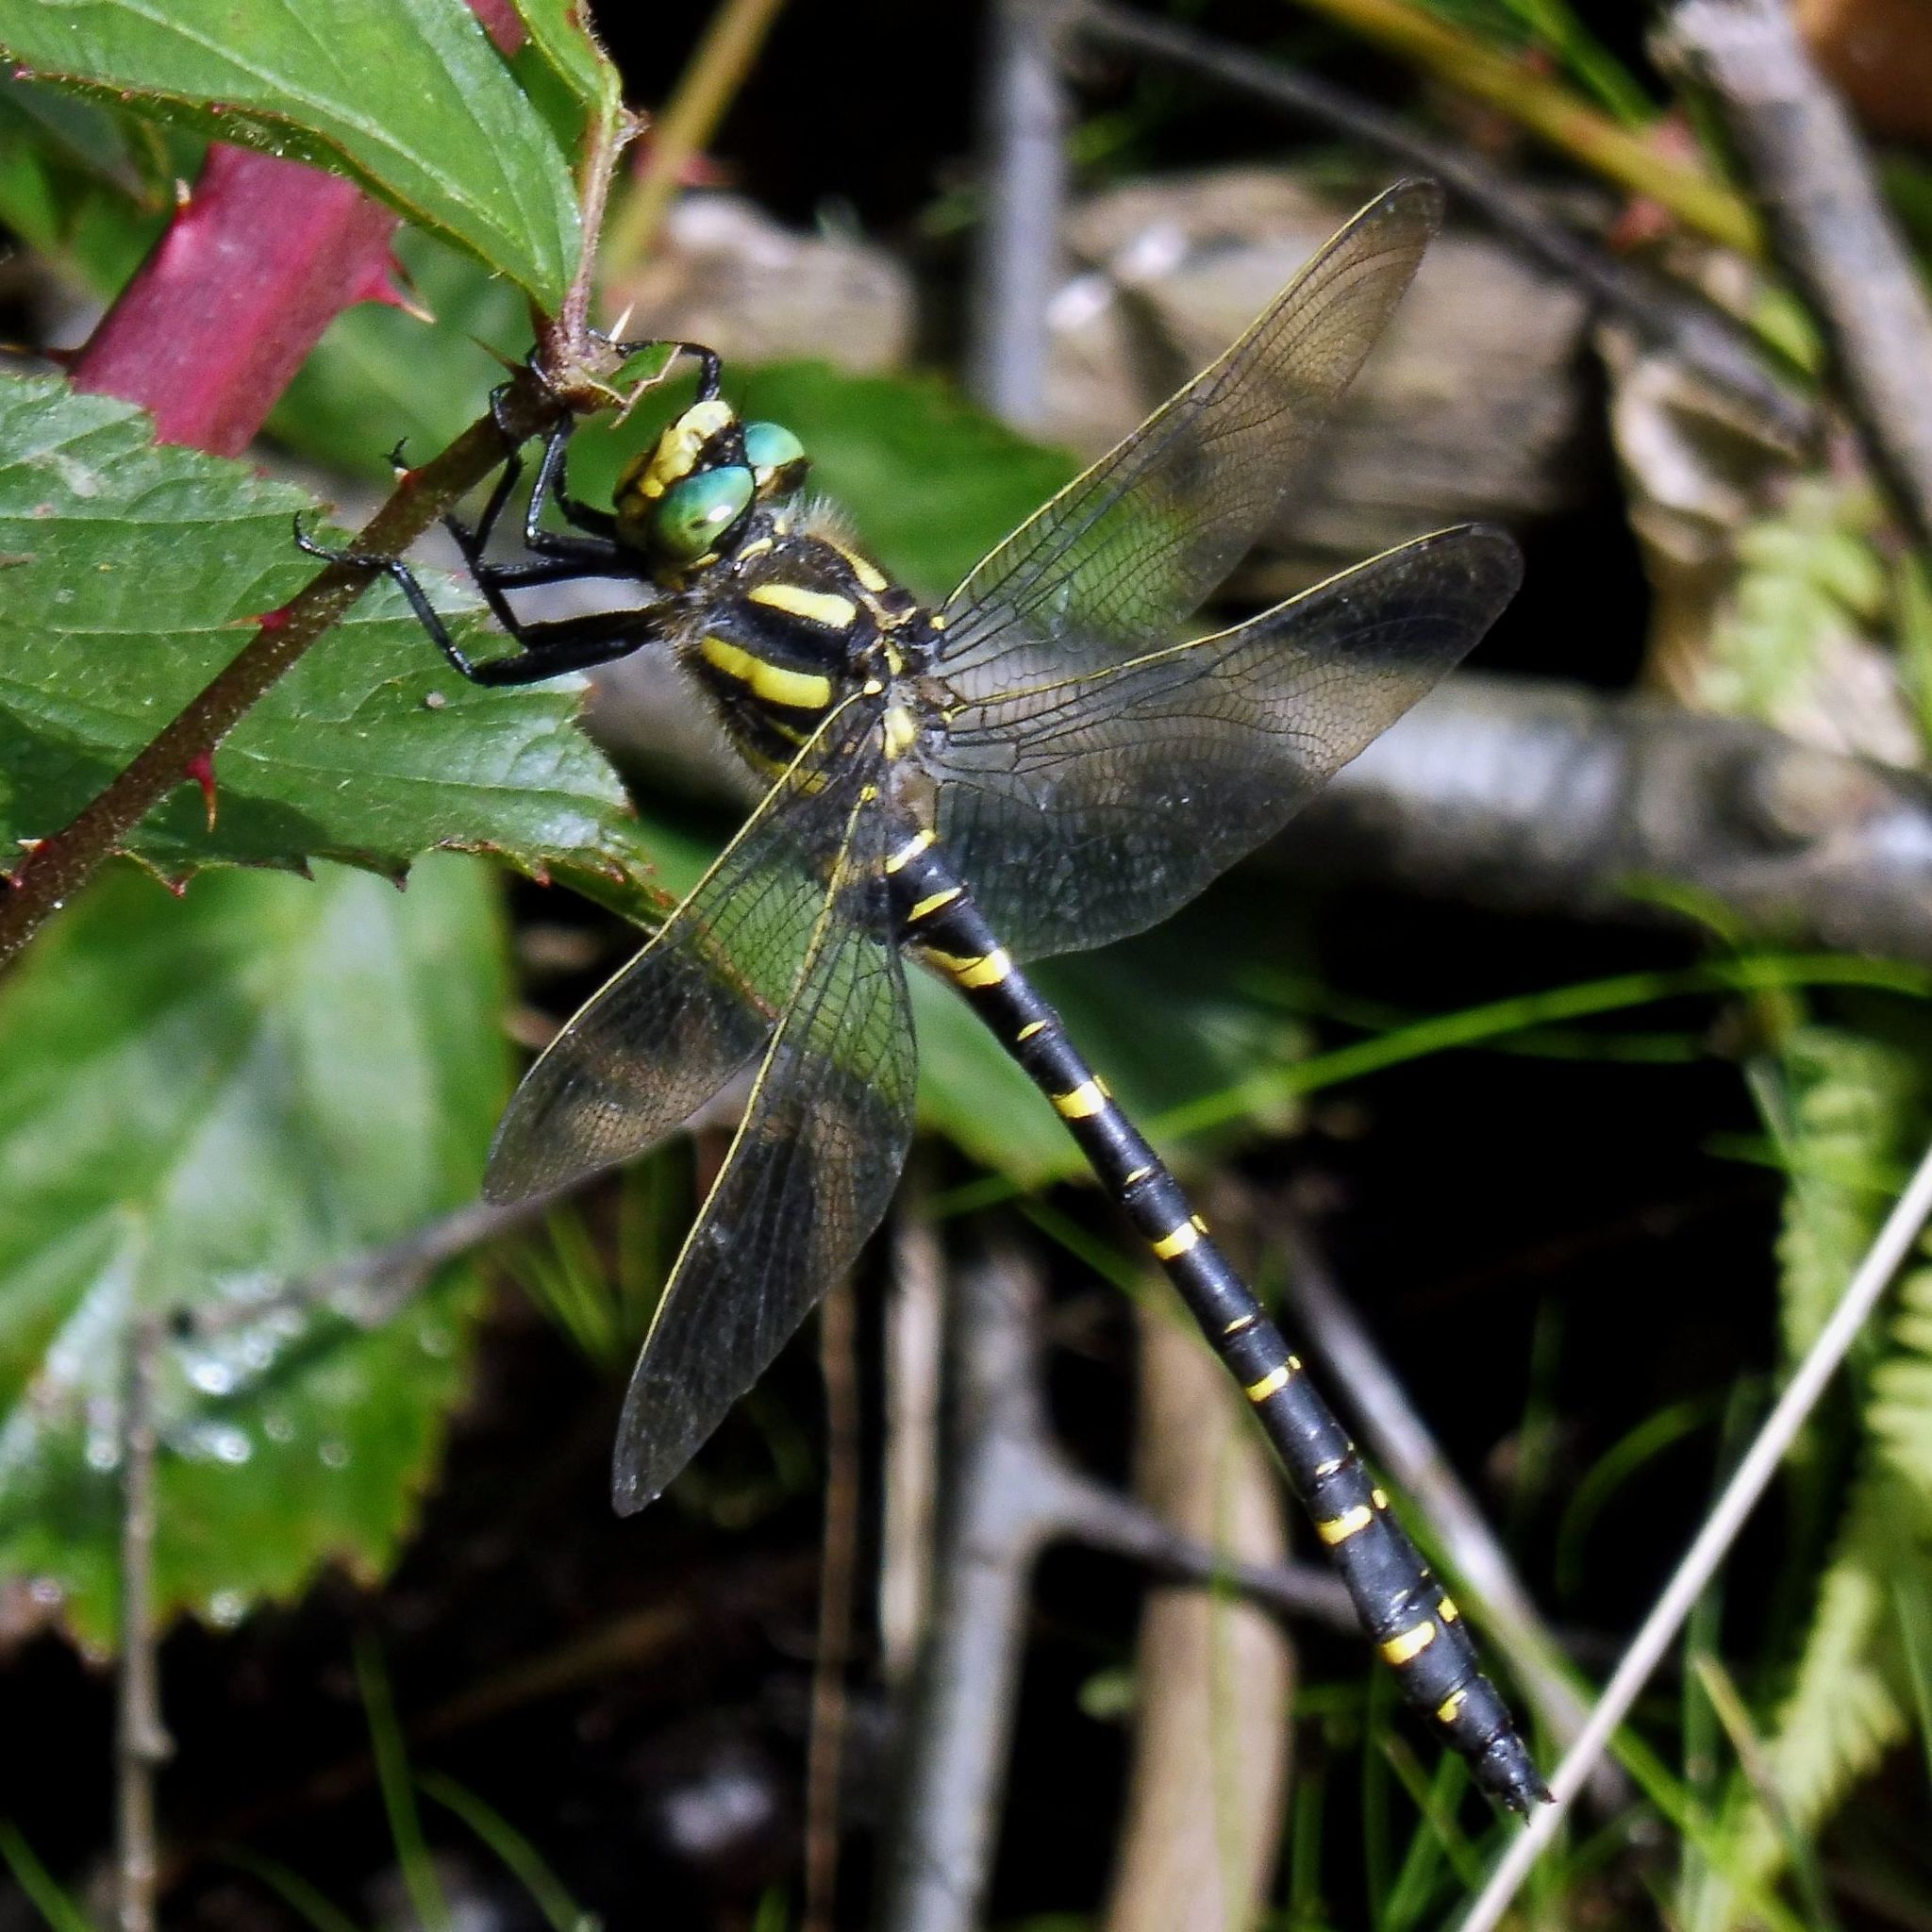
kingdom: Animalia
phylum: Arthropoda
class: Insecta
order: Odonata
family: Cordulegastridae
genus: Cordulegaster
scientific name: Cordulegaster boltonii
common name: Golden-ringed dragonfly
